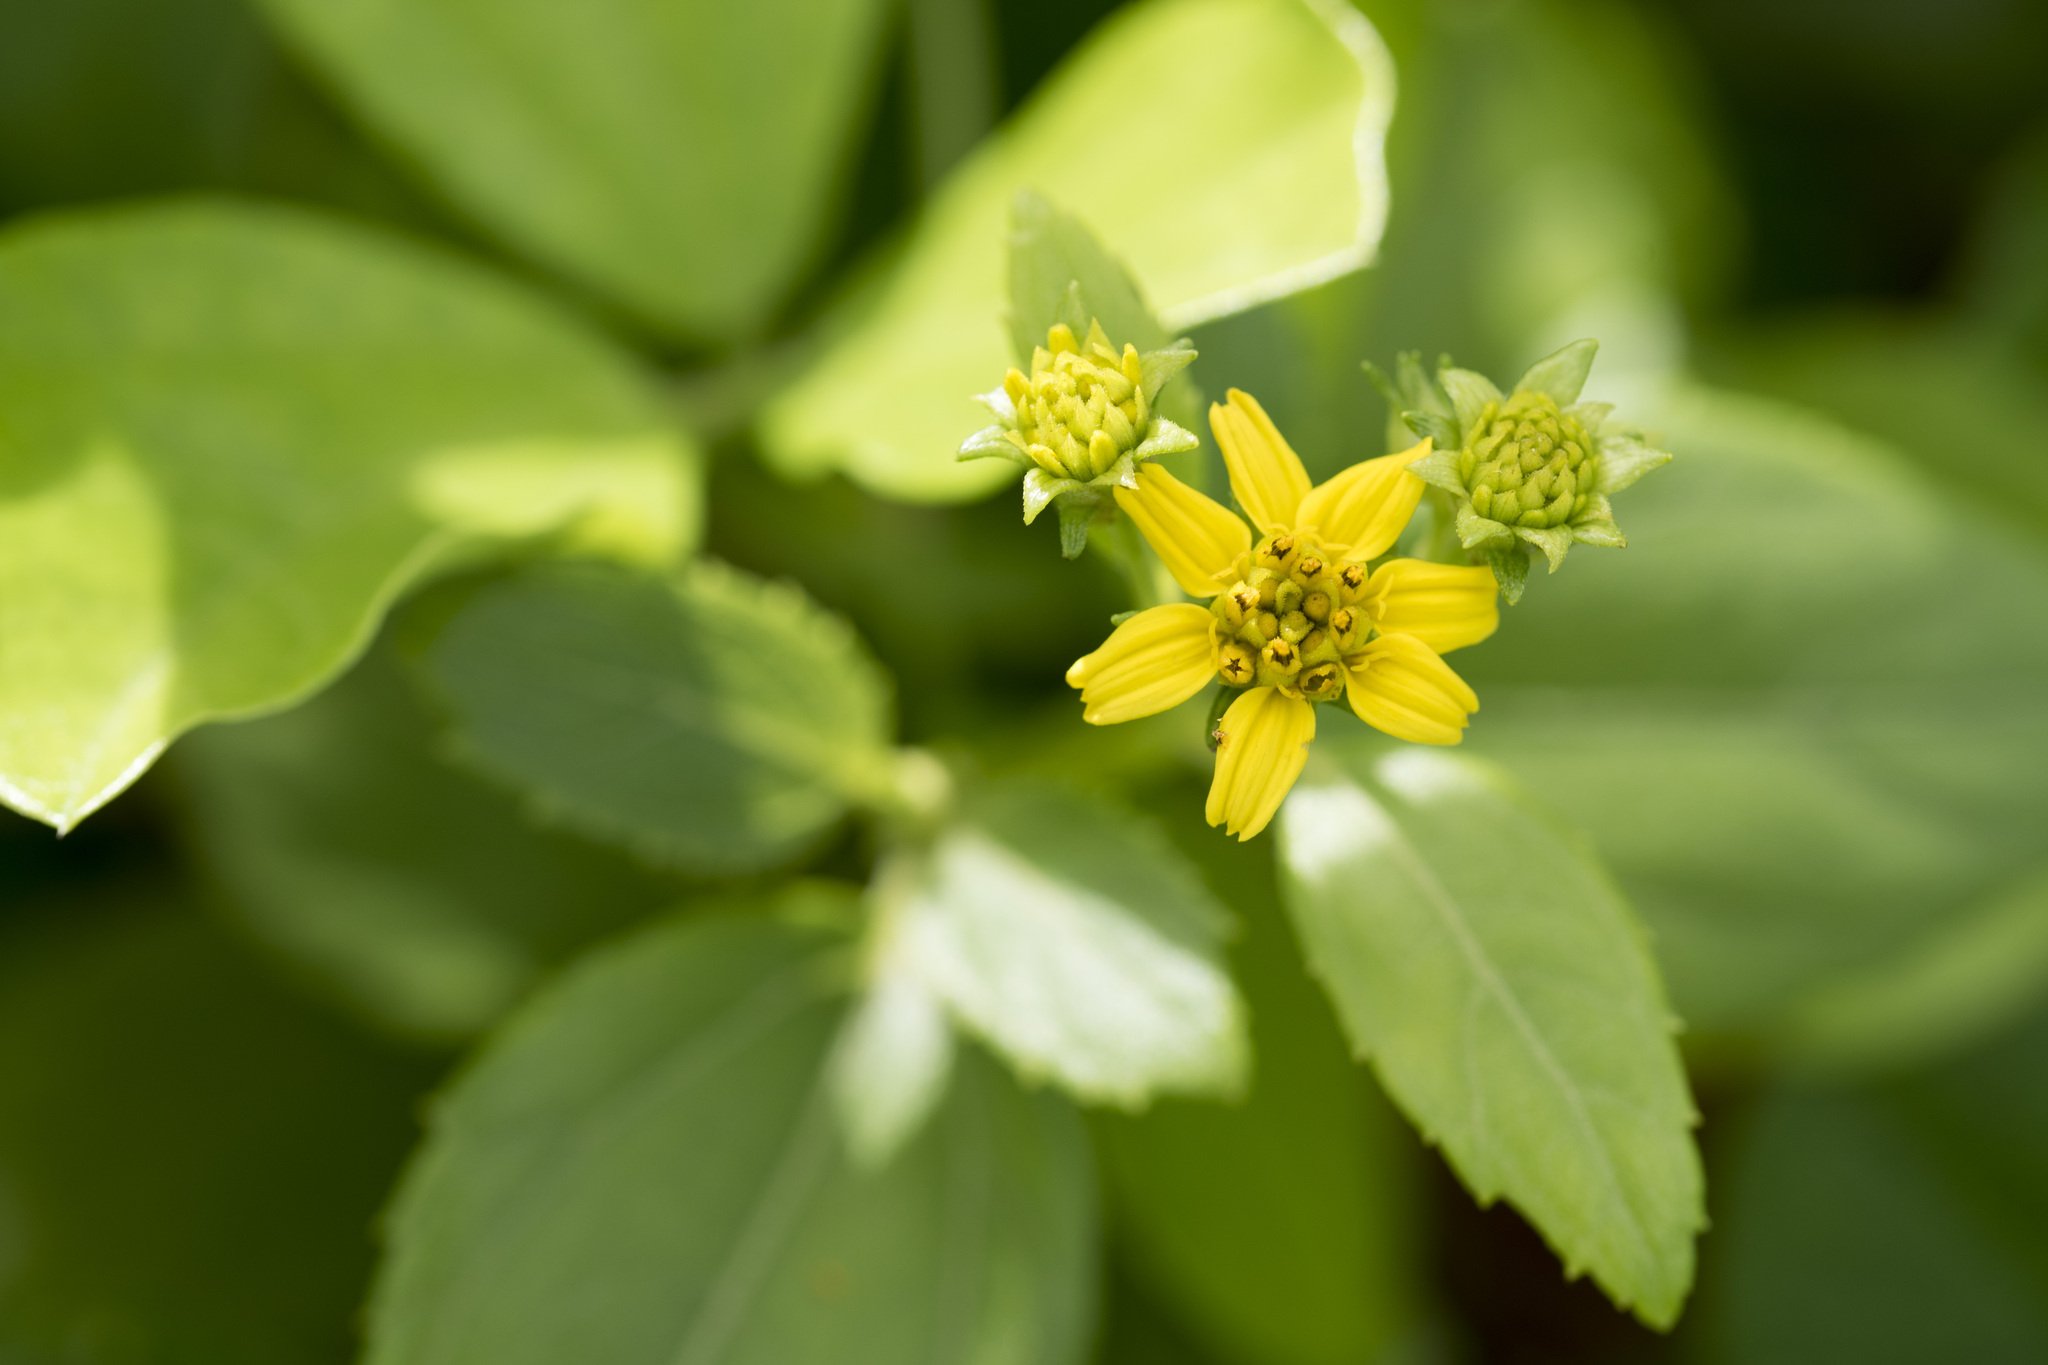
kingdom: Plantae
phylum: Tracheophyta
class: Magnoliopsida
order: Asterales
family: Asteraceae
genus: Wollastonia
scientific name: Wollastonia biflora
